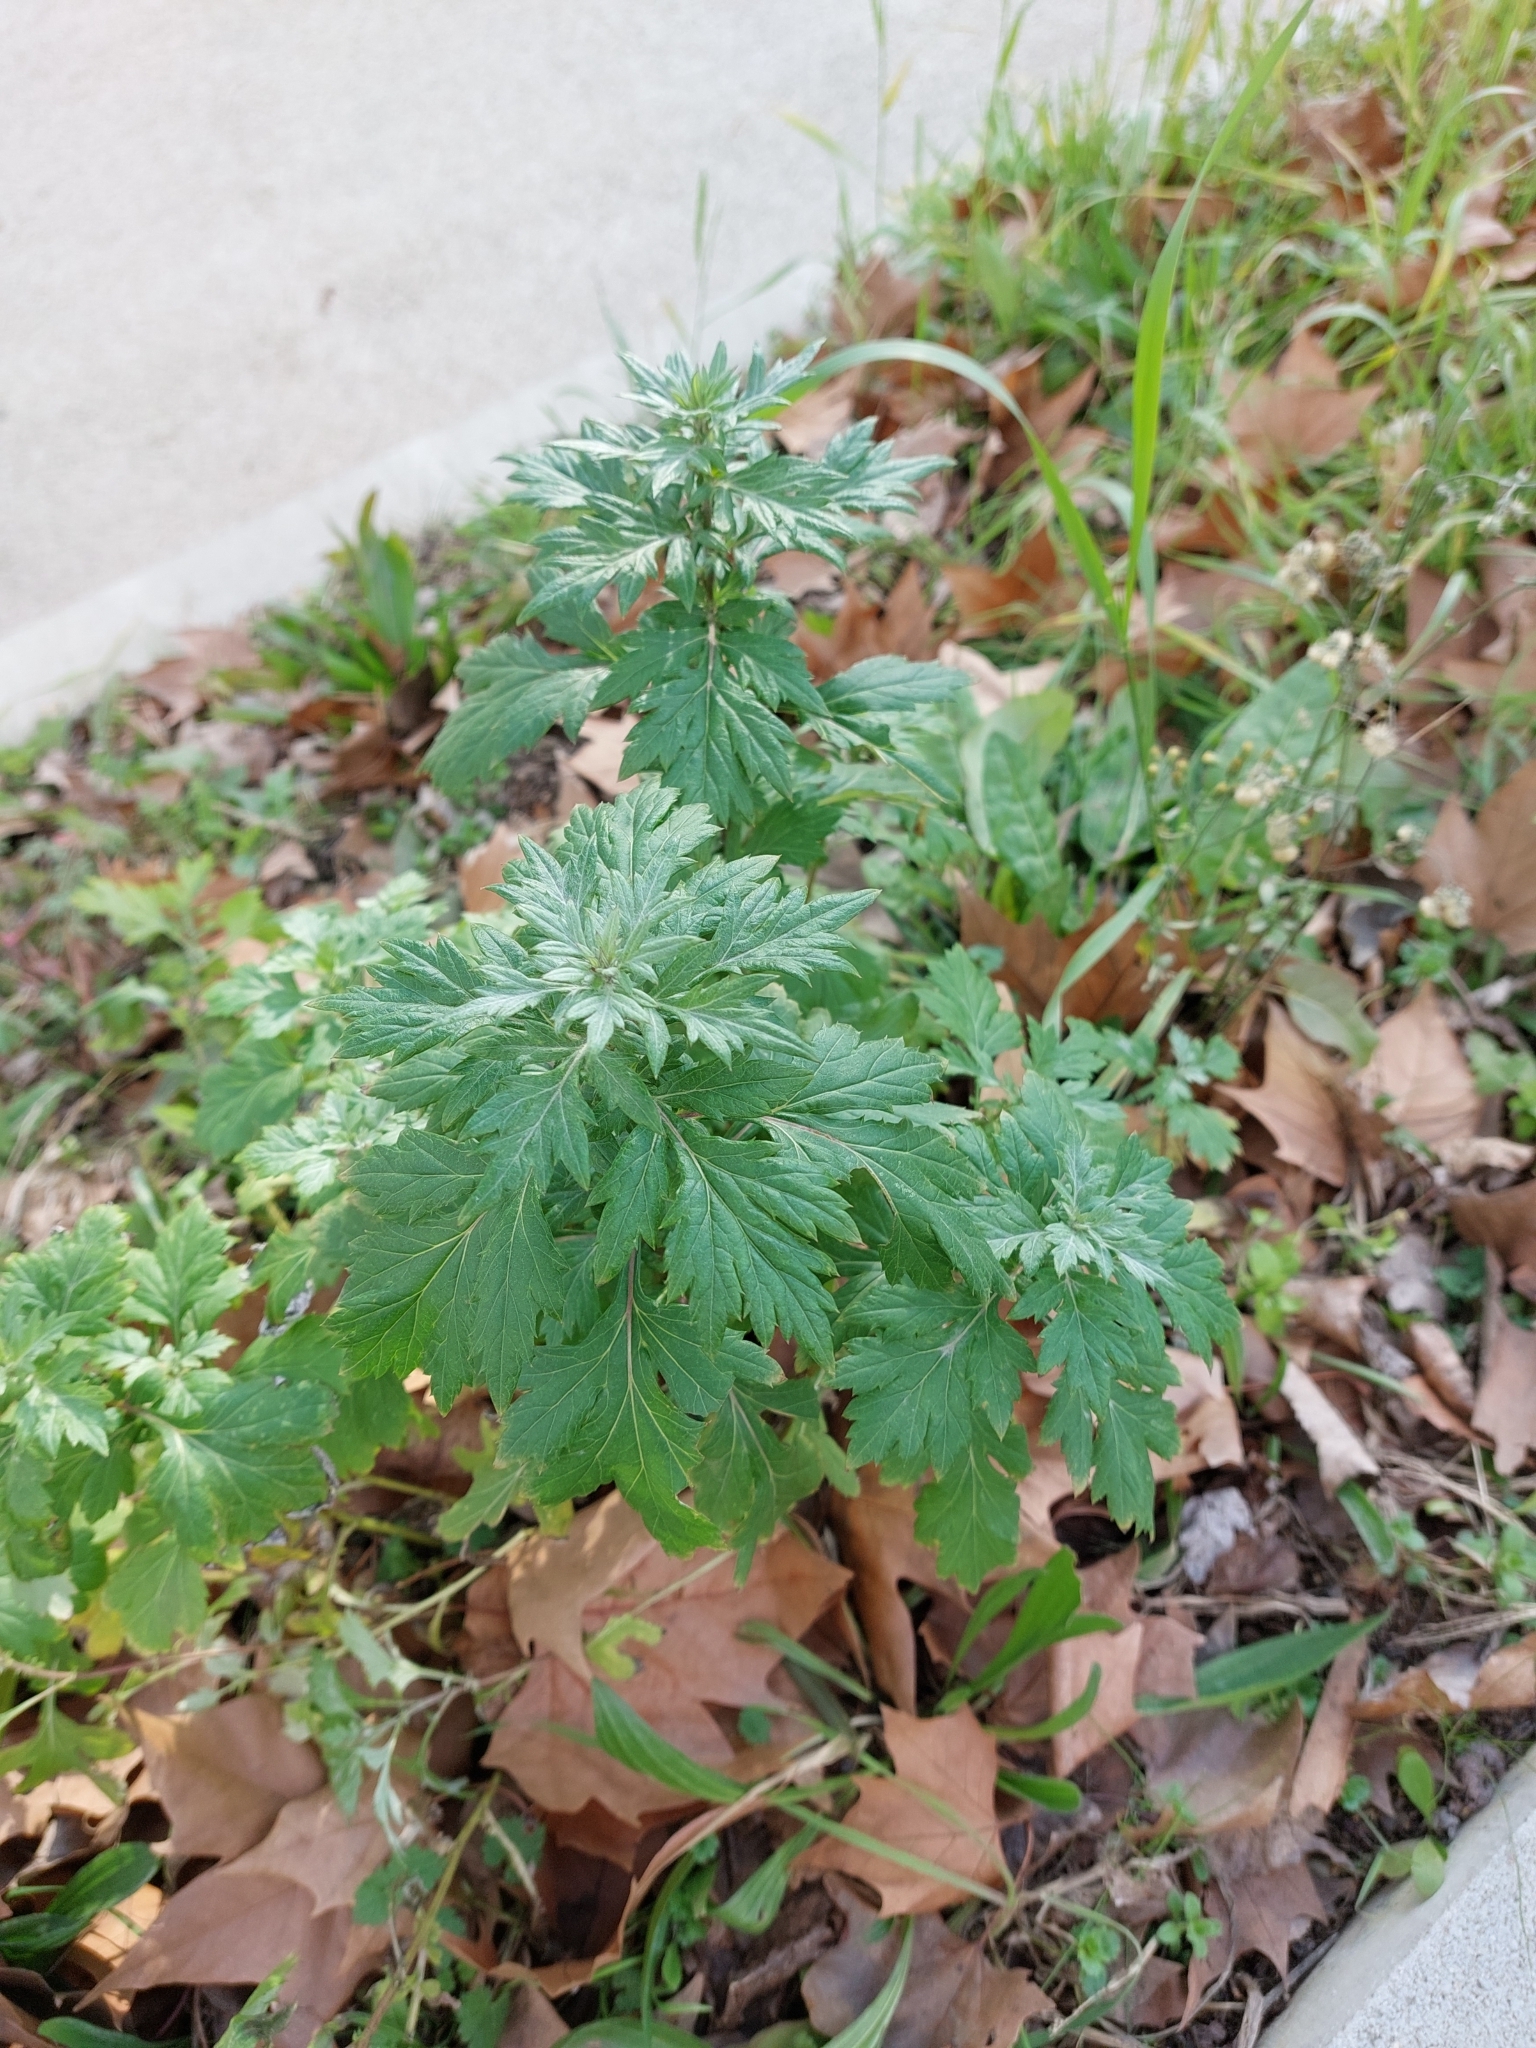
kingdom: Plantae
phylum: Tracheophyta
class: Magnoliopsida
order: Asterales
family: Asteraceae
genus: Artemisia
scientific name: Artemisia vulgaris
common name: Mugwort
